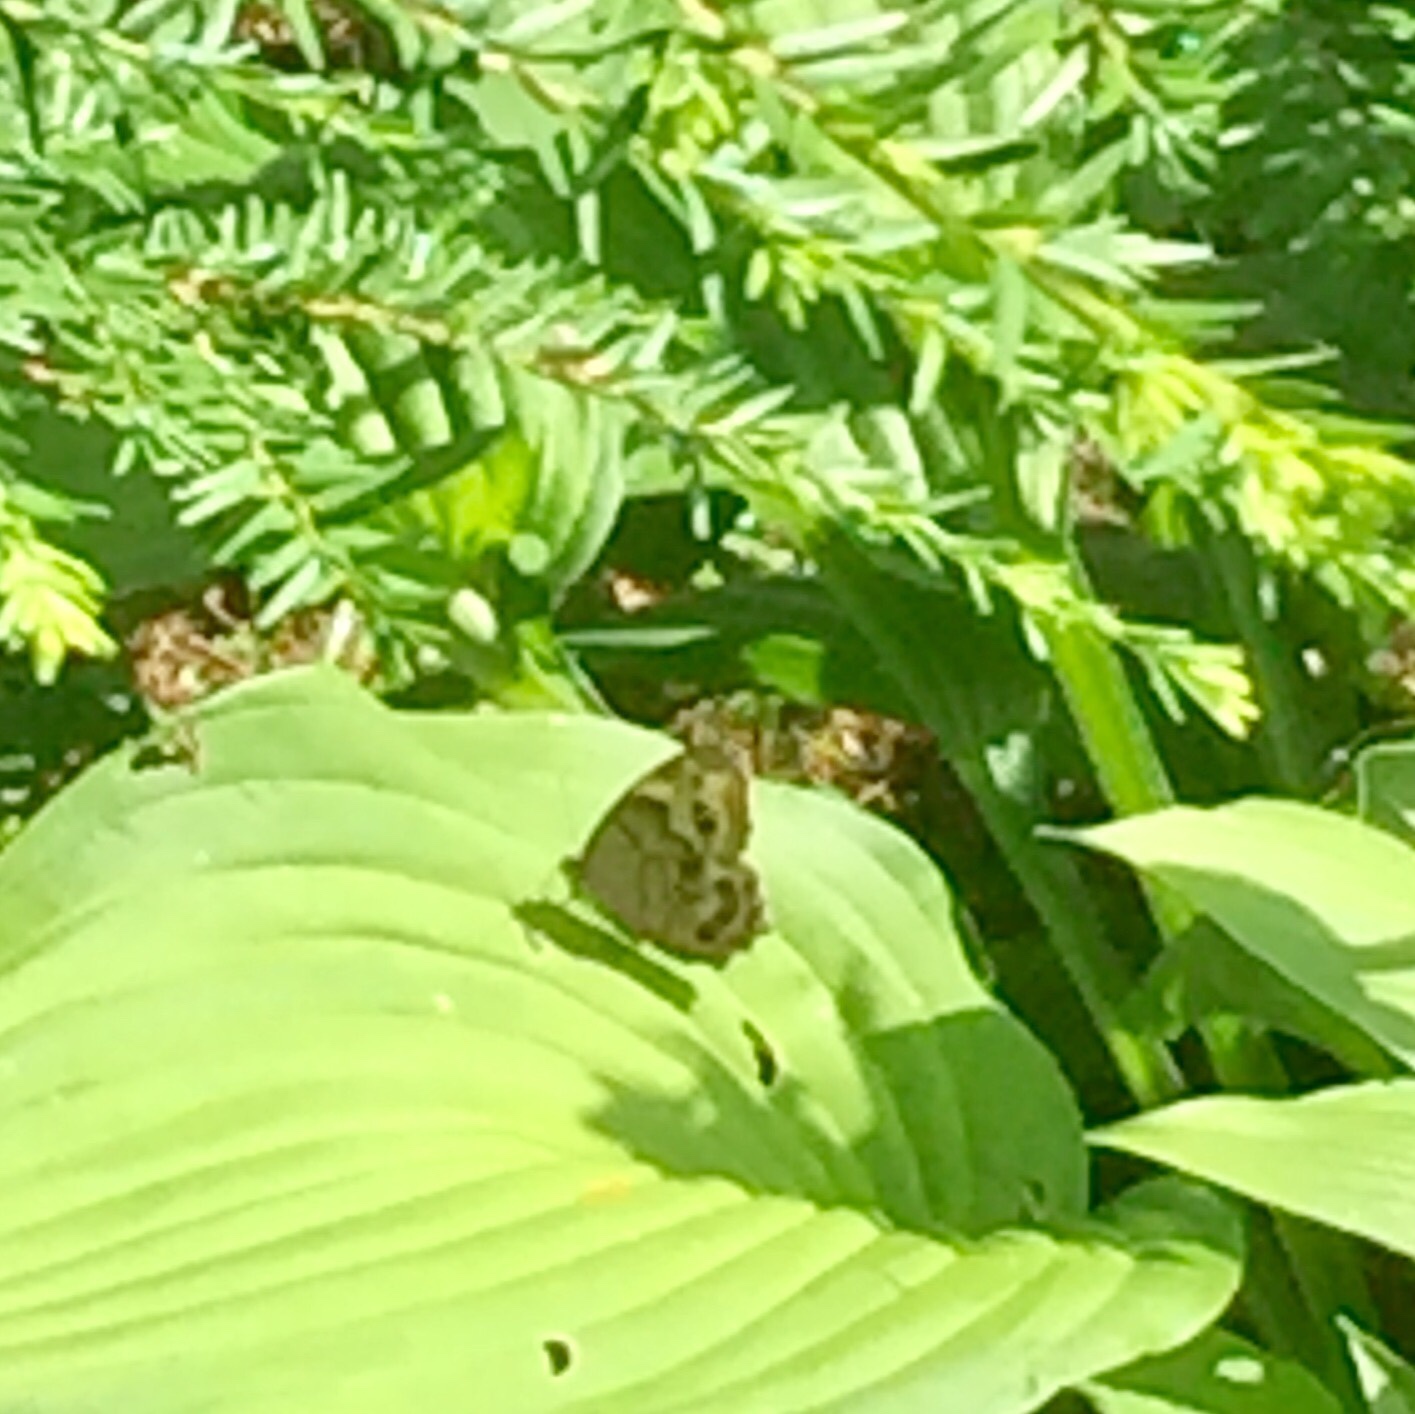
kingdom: Animalia
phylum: Arthropoda
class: Insecta
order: Lepidoptera
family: Nymphalidae
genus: Lethe
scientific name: Lethe anthedon
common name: Northern pearly-eye
